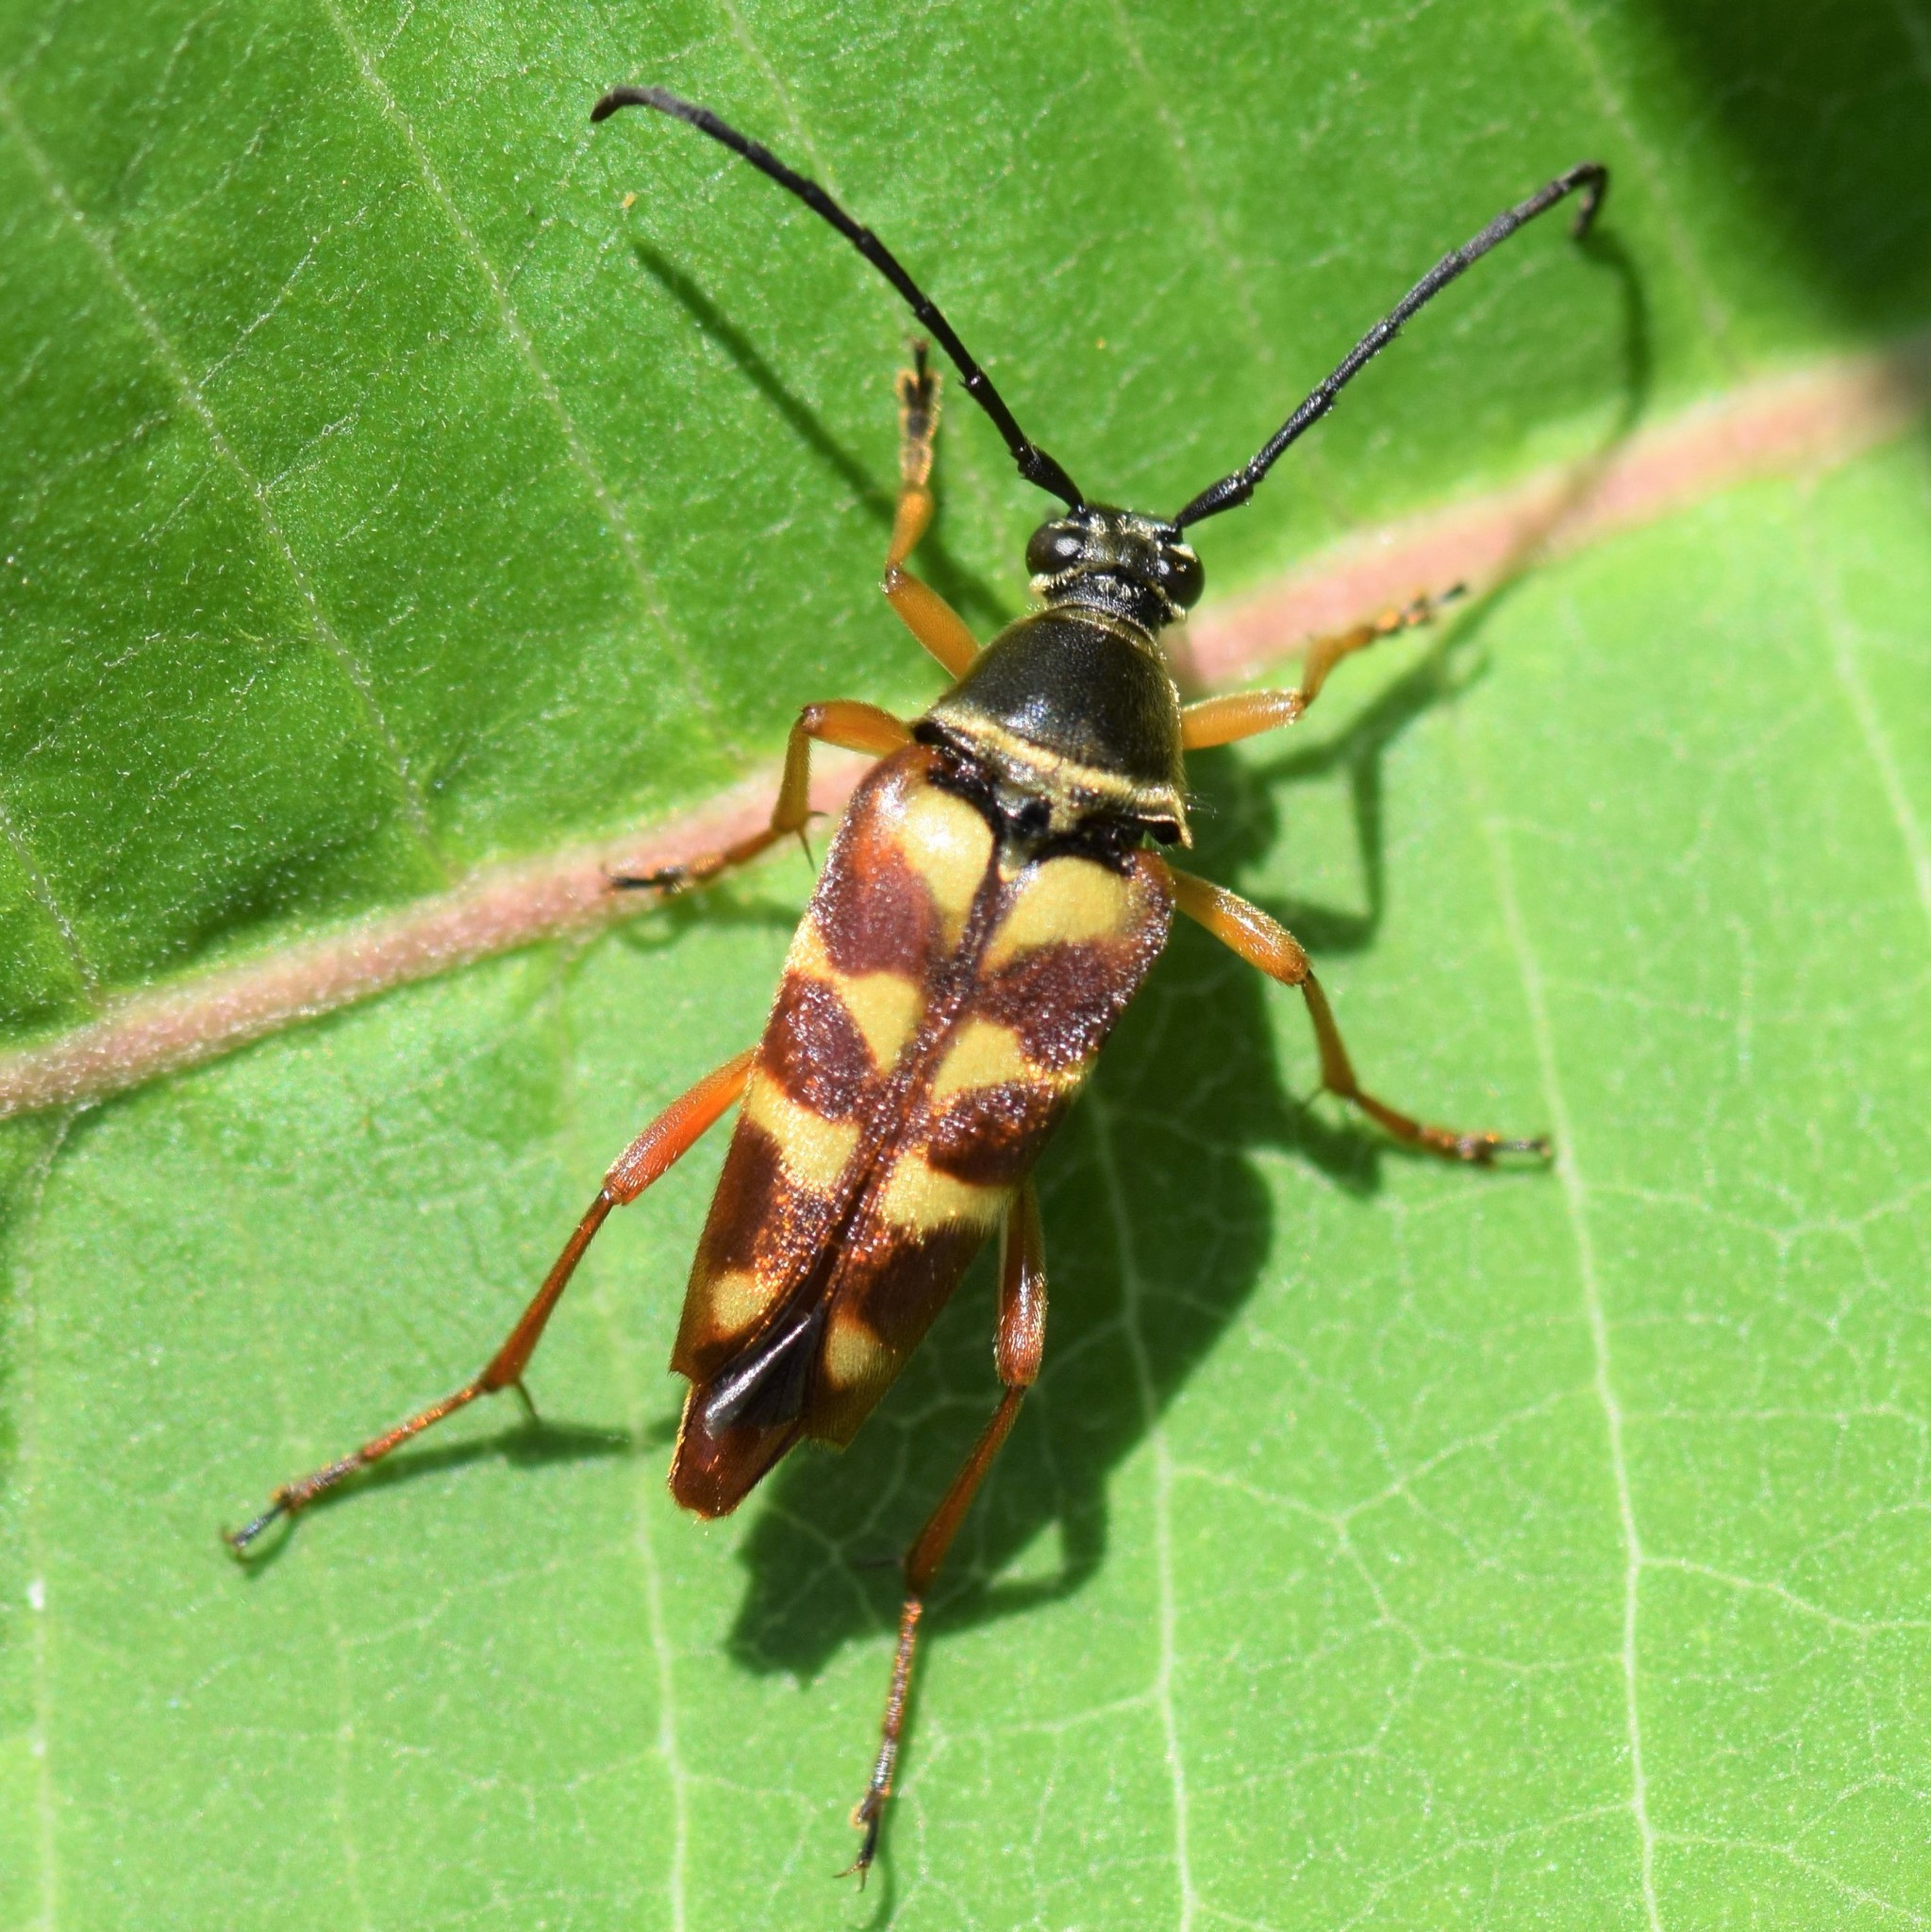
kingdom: Animalia
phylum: Arthropoda
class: Insecta
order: Coleoptera
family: Cerambycidae
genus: Typocerus
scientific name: Typocerus velutinus
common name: Banded longhorn beetle
